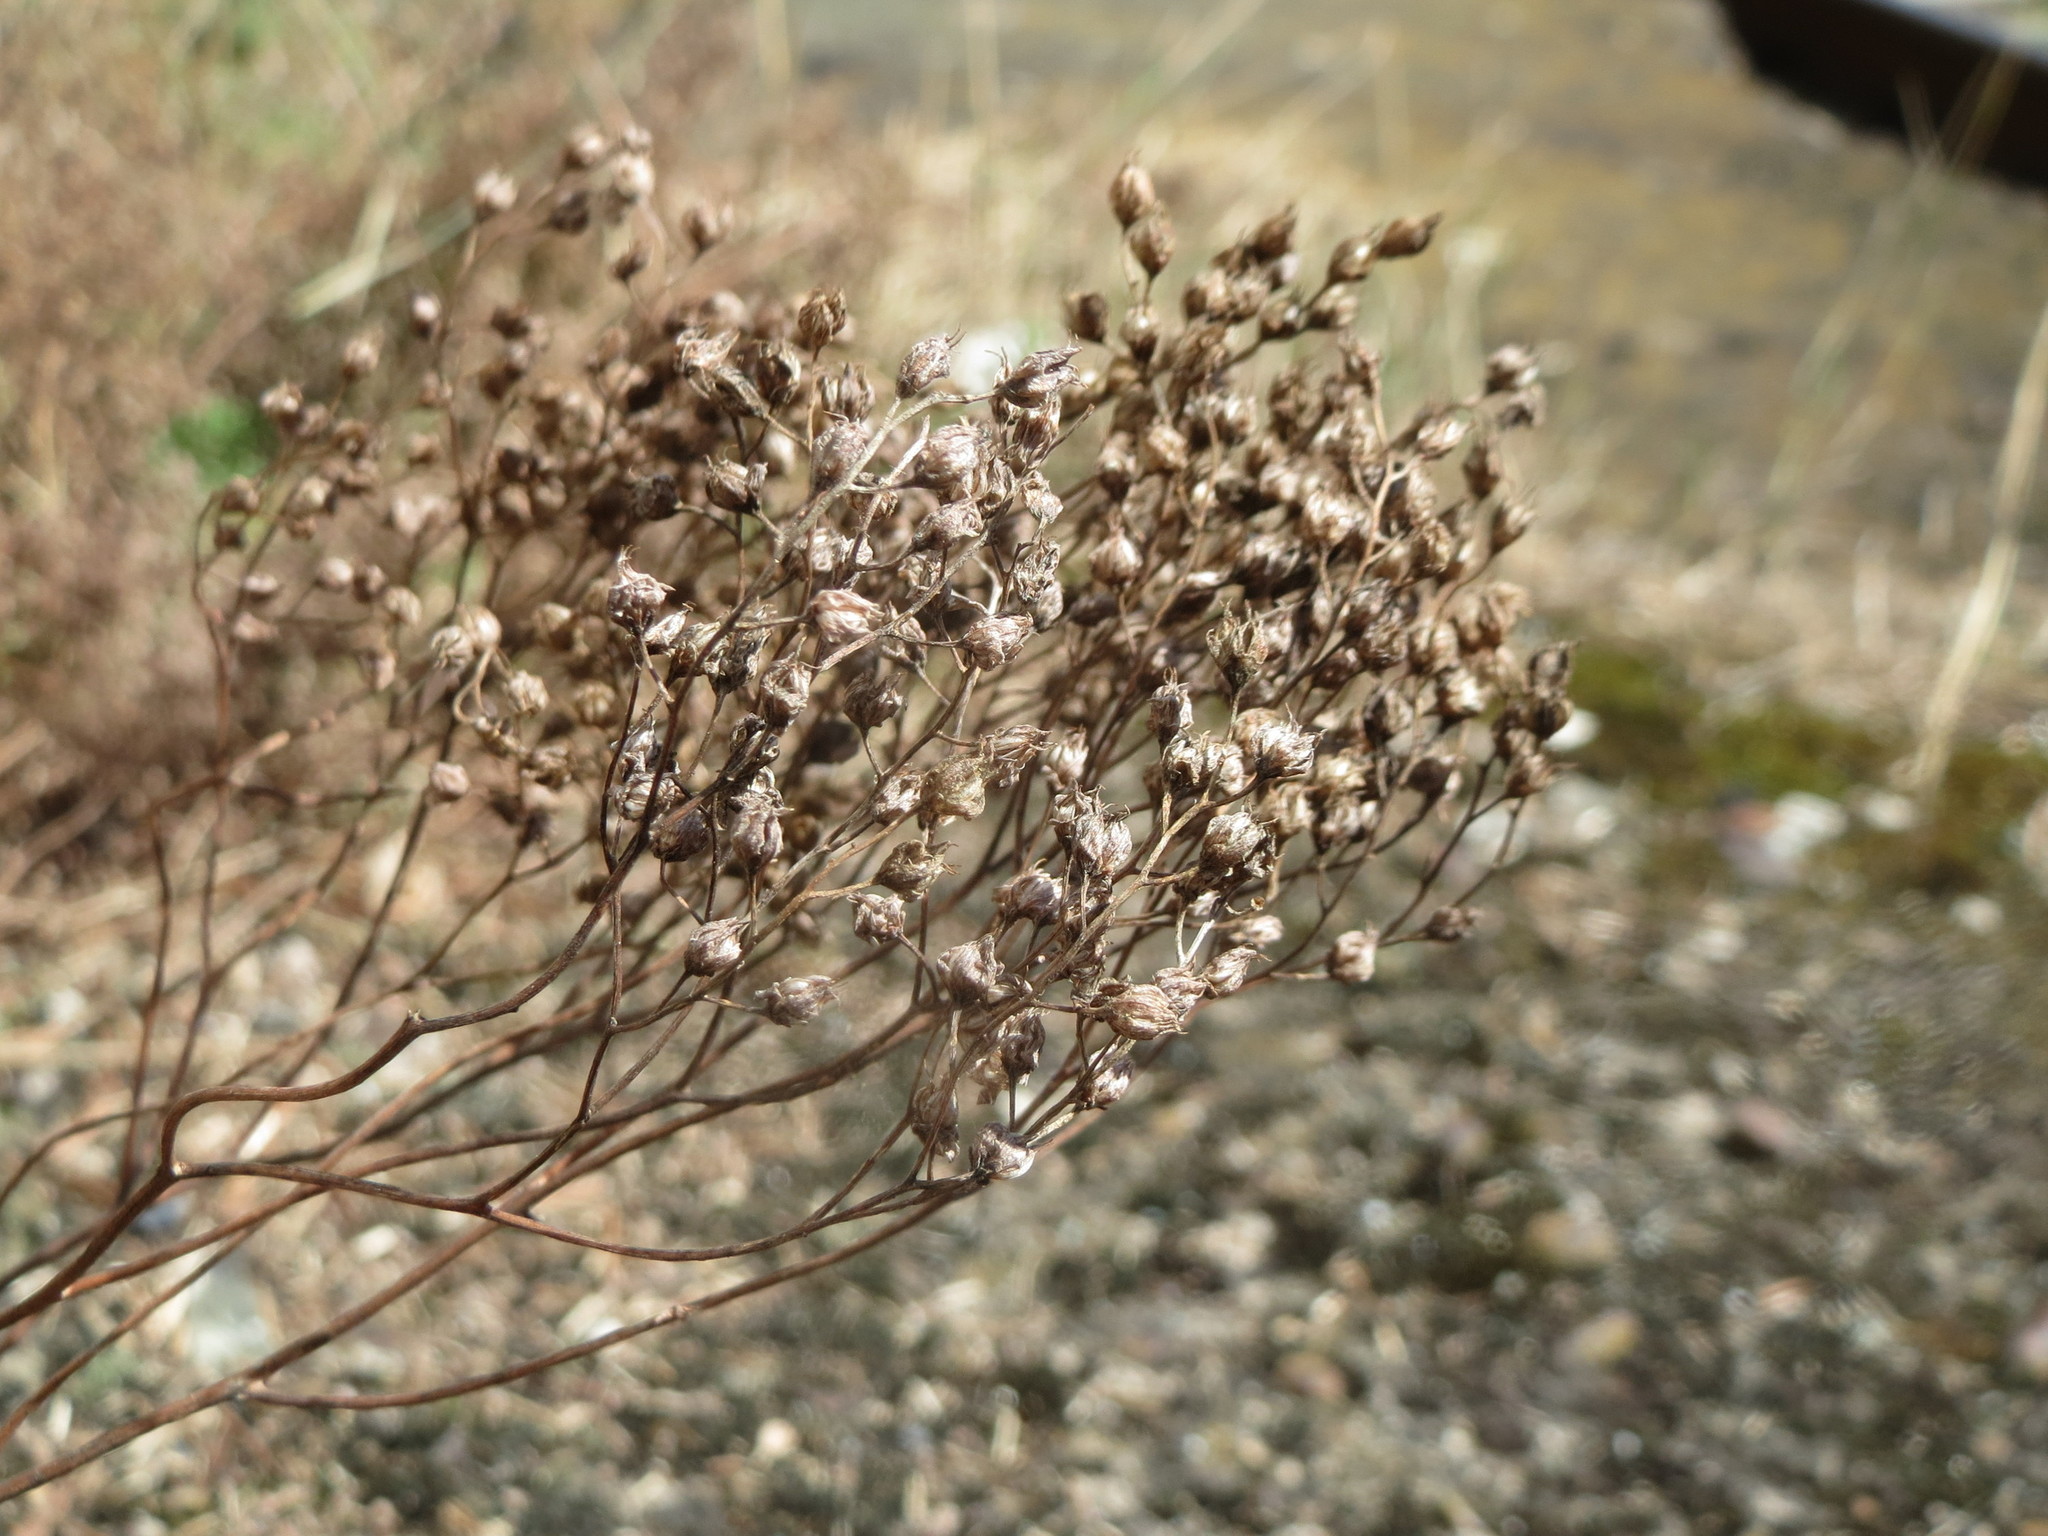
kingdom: Plantae
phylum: Tracheophyta
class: Magnoliopsida
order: Saxifragales
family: Crassulaceae
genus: Sedum
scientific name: Sedum album
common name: White stonecrop
